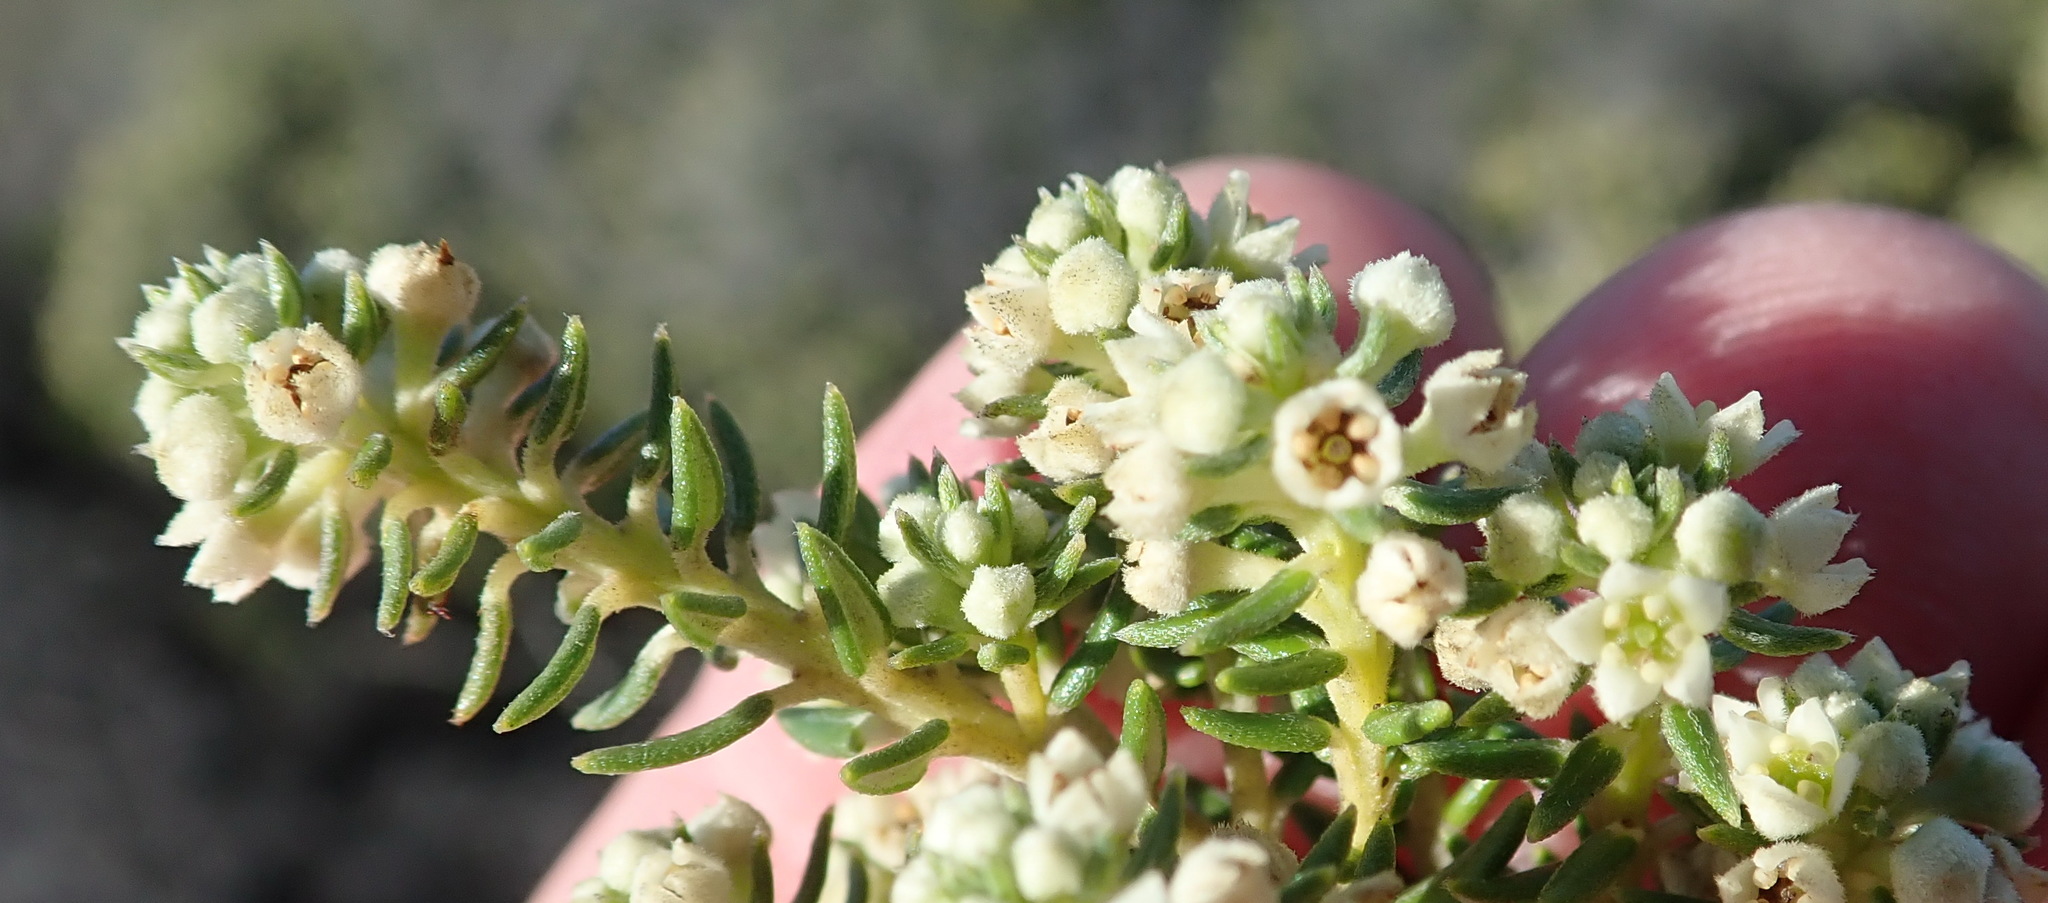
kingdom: Plantae
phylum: Tracheophyta
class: Magnoliopsida
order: Rosales
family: Rhamnaceae
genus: Phylica
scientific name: Phylica axillaris
